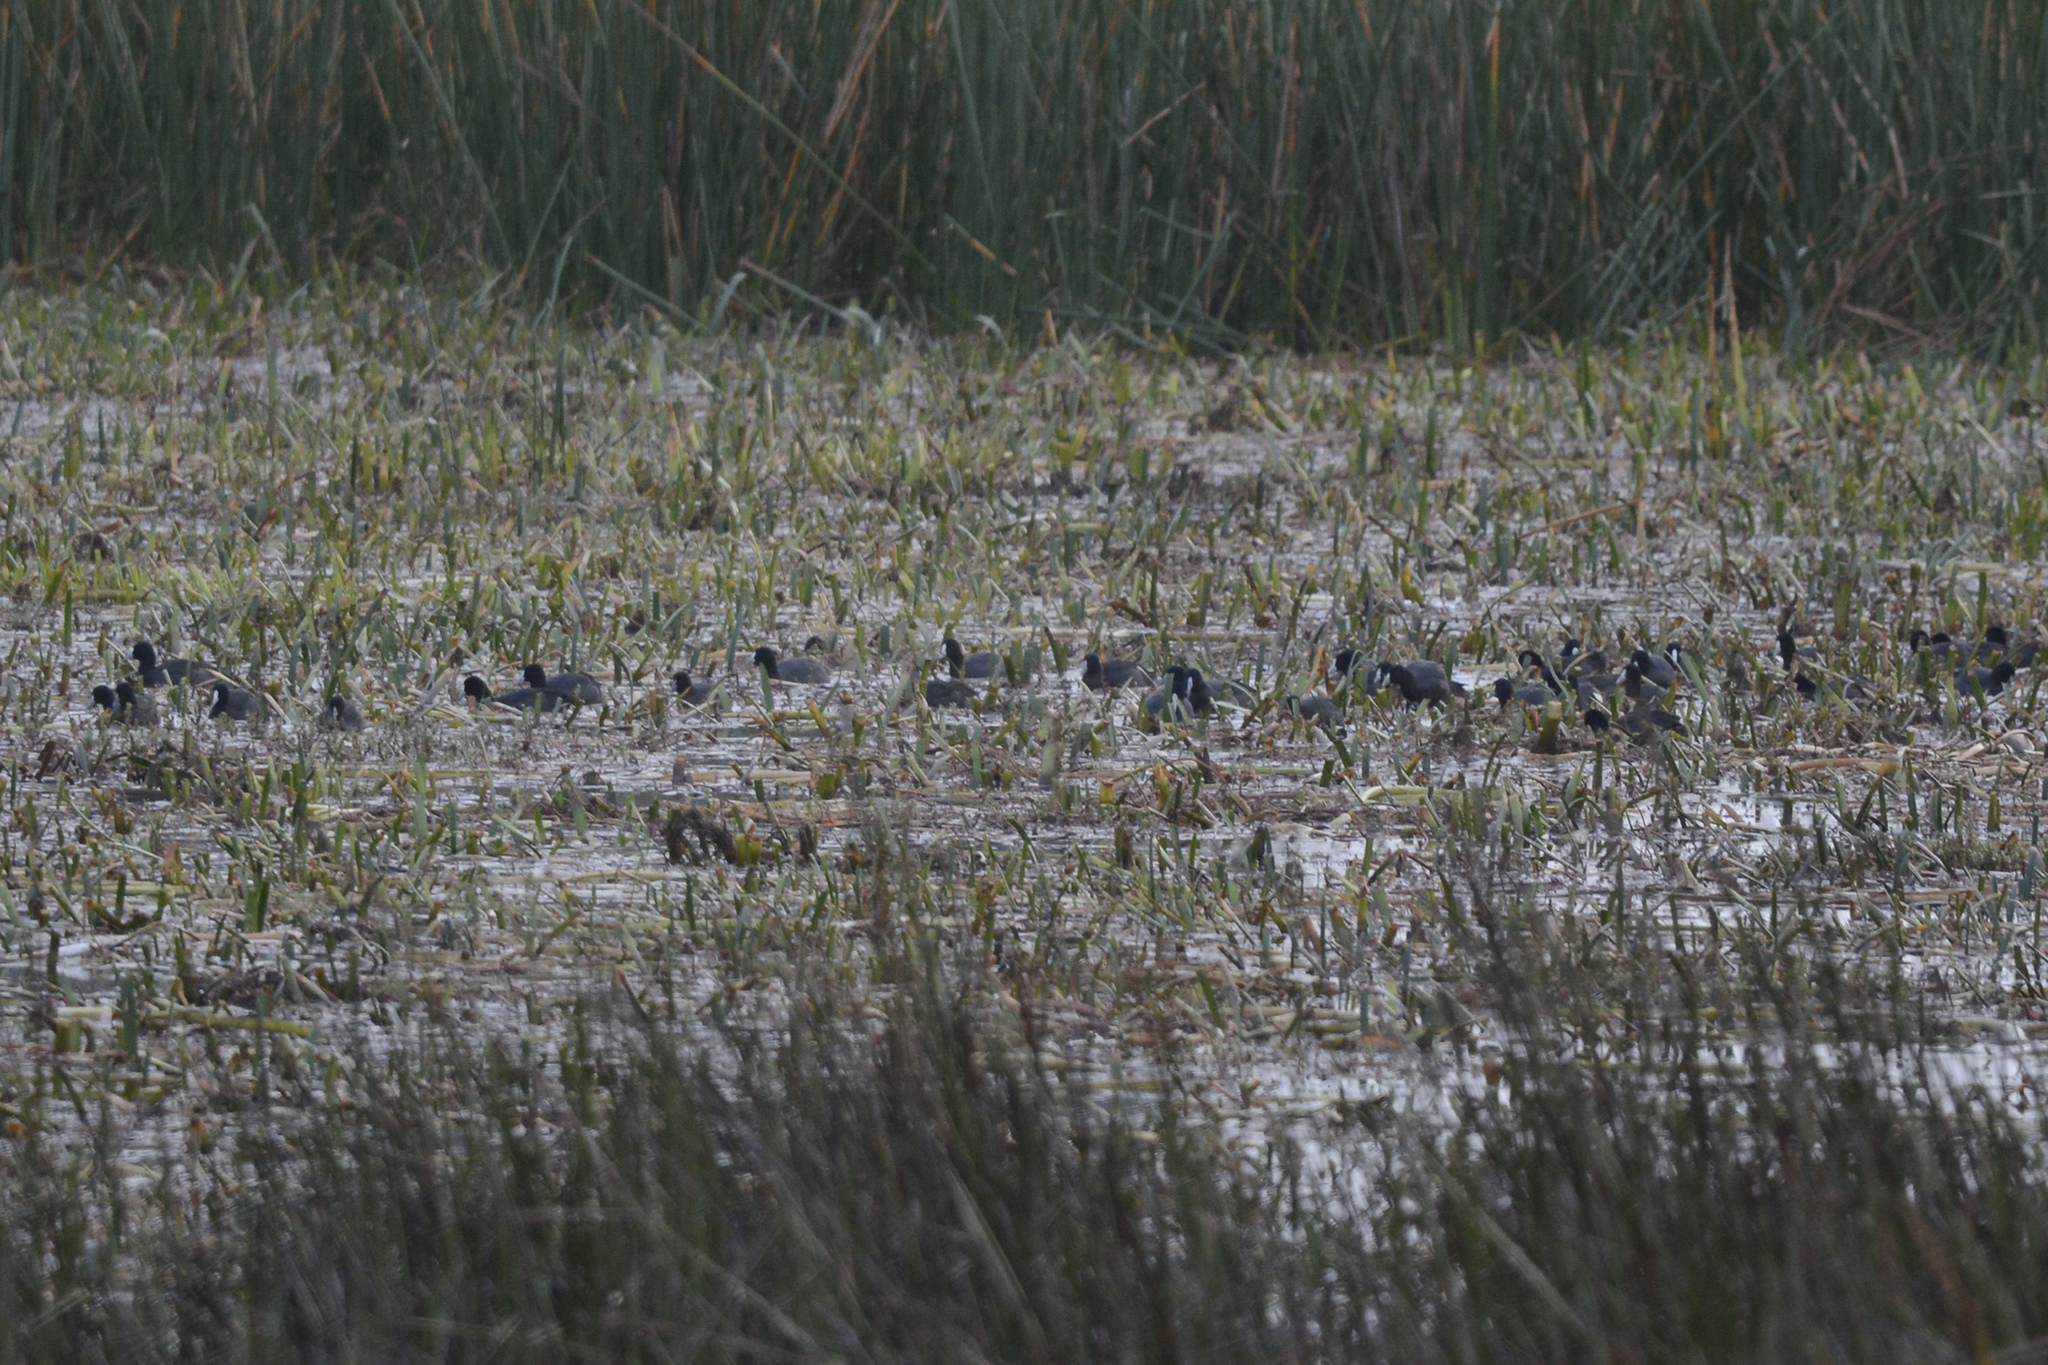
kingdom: Animalia
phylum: Chordata
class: Aves
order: Gruiformes
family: Rallidae
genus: Fulica
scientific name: Fulica atra
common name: Eurasian coot
